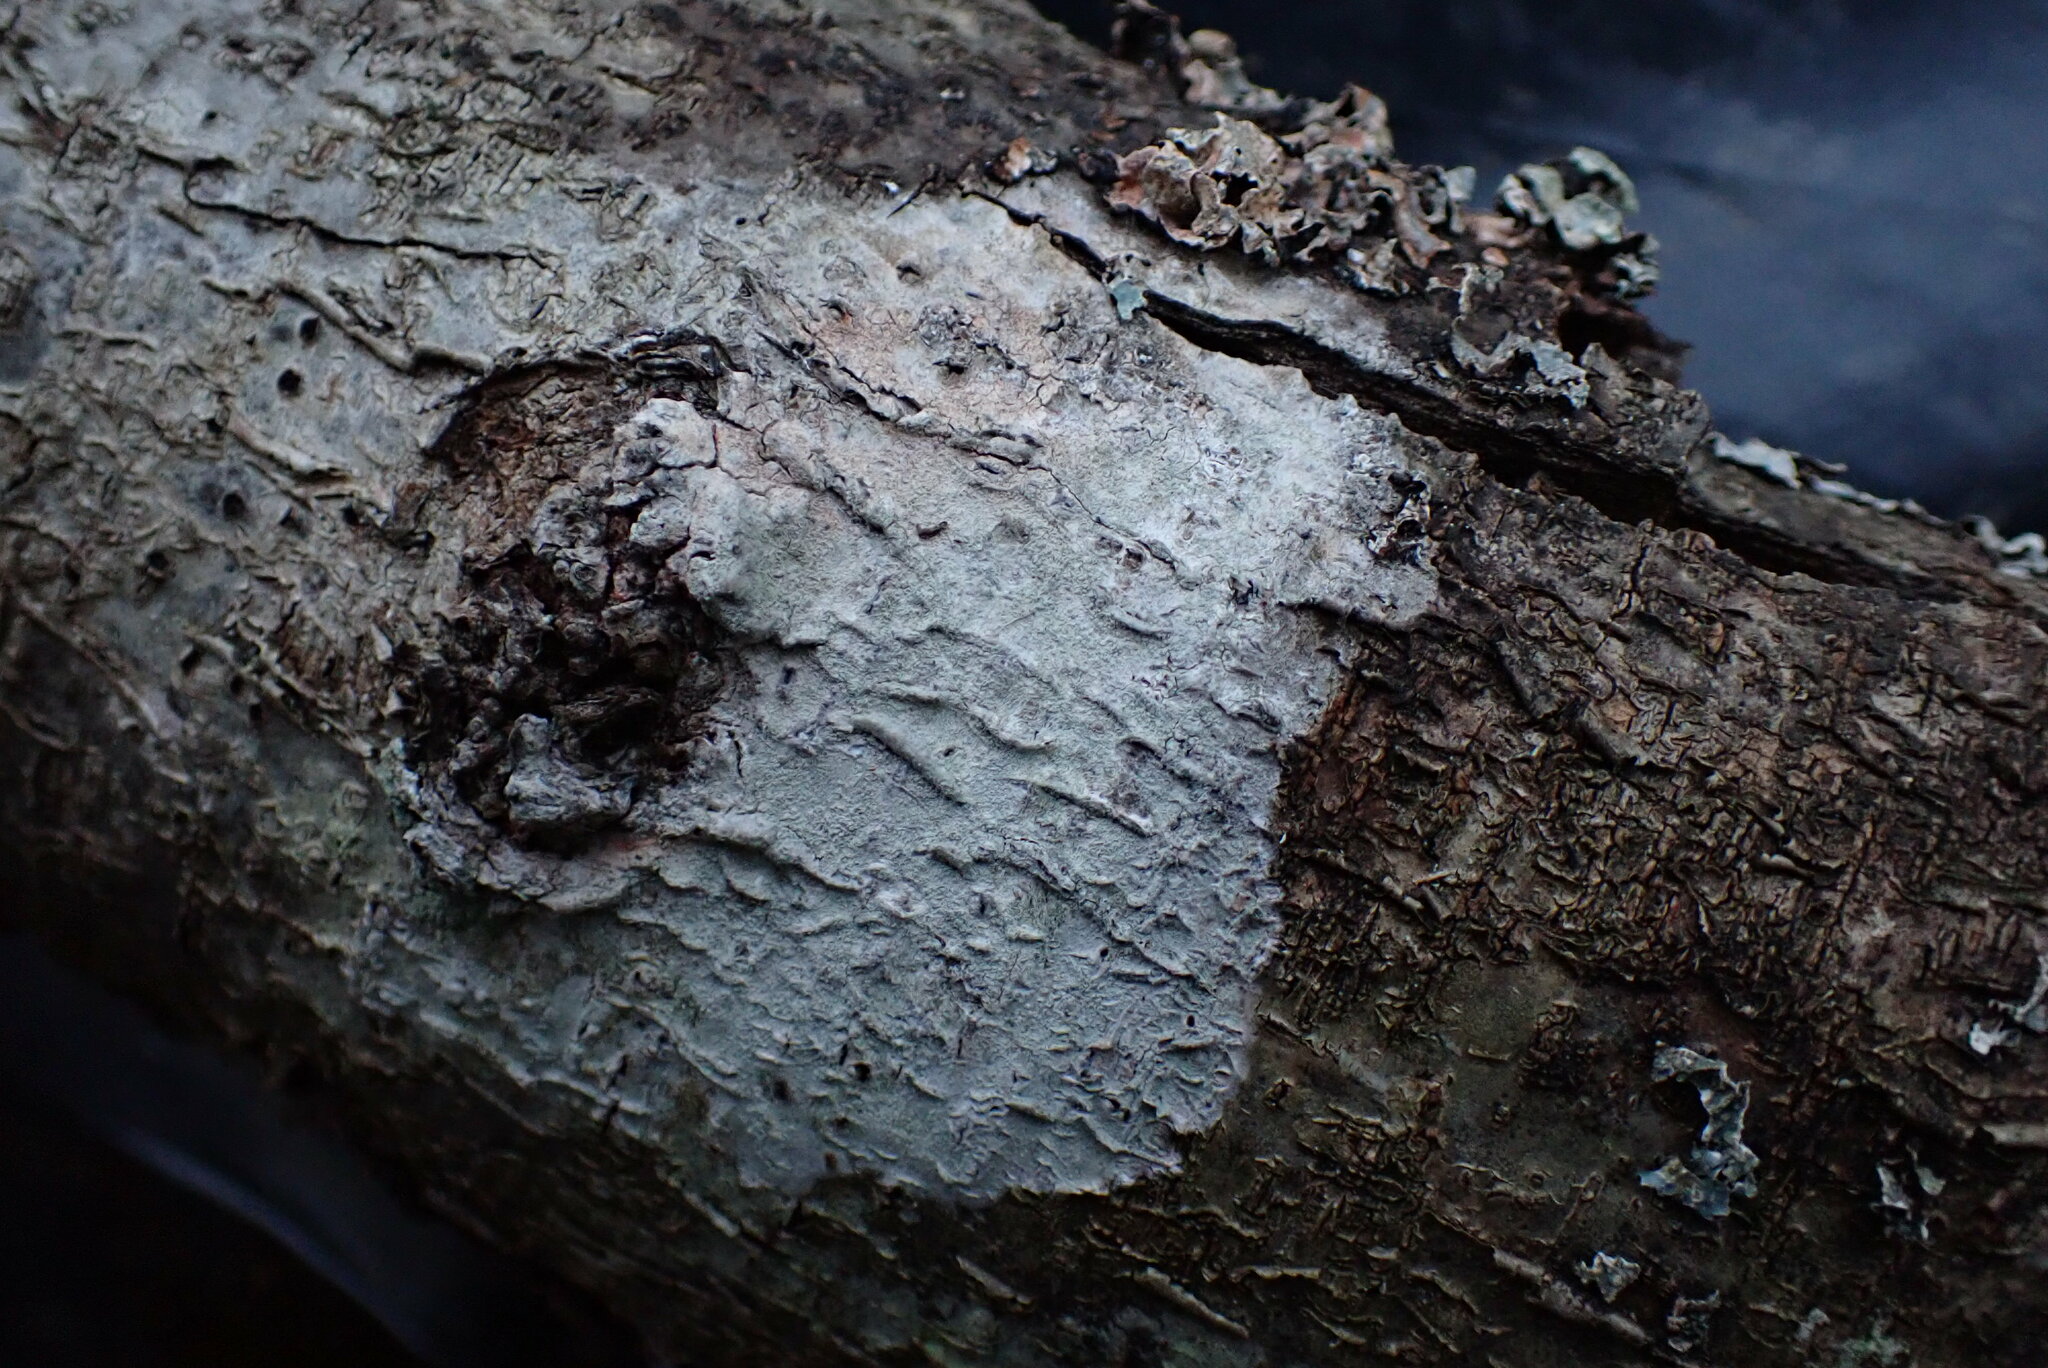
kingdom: Fungi
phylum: Ascomycota
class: Lecanoromycetes
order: Lecanorales
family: Parmeliaceae
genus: Parmelia
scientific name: Parmelia sulcata
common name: Netted shield lichen
